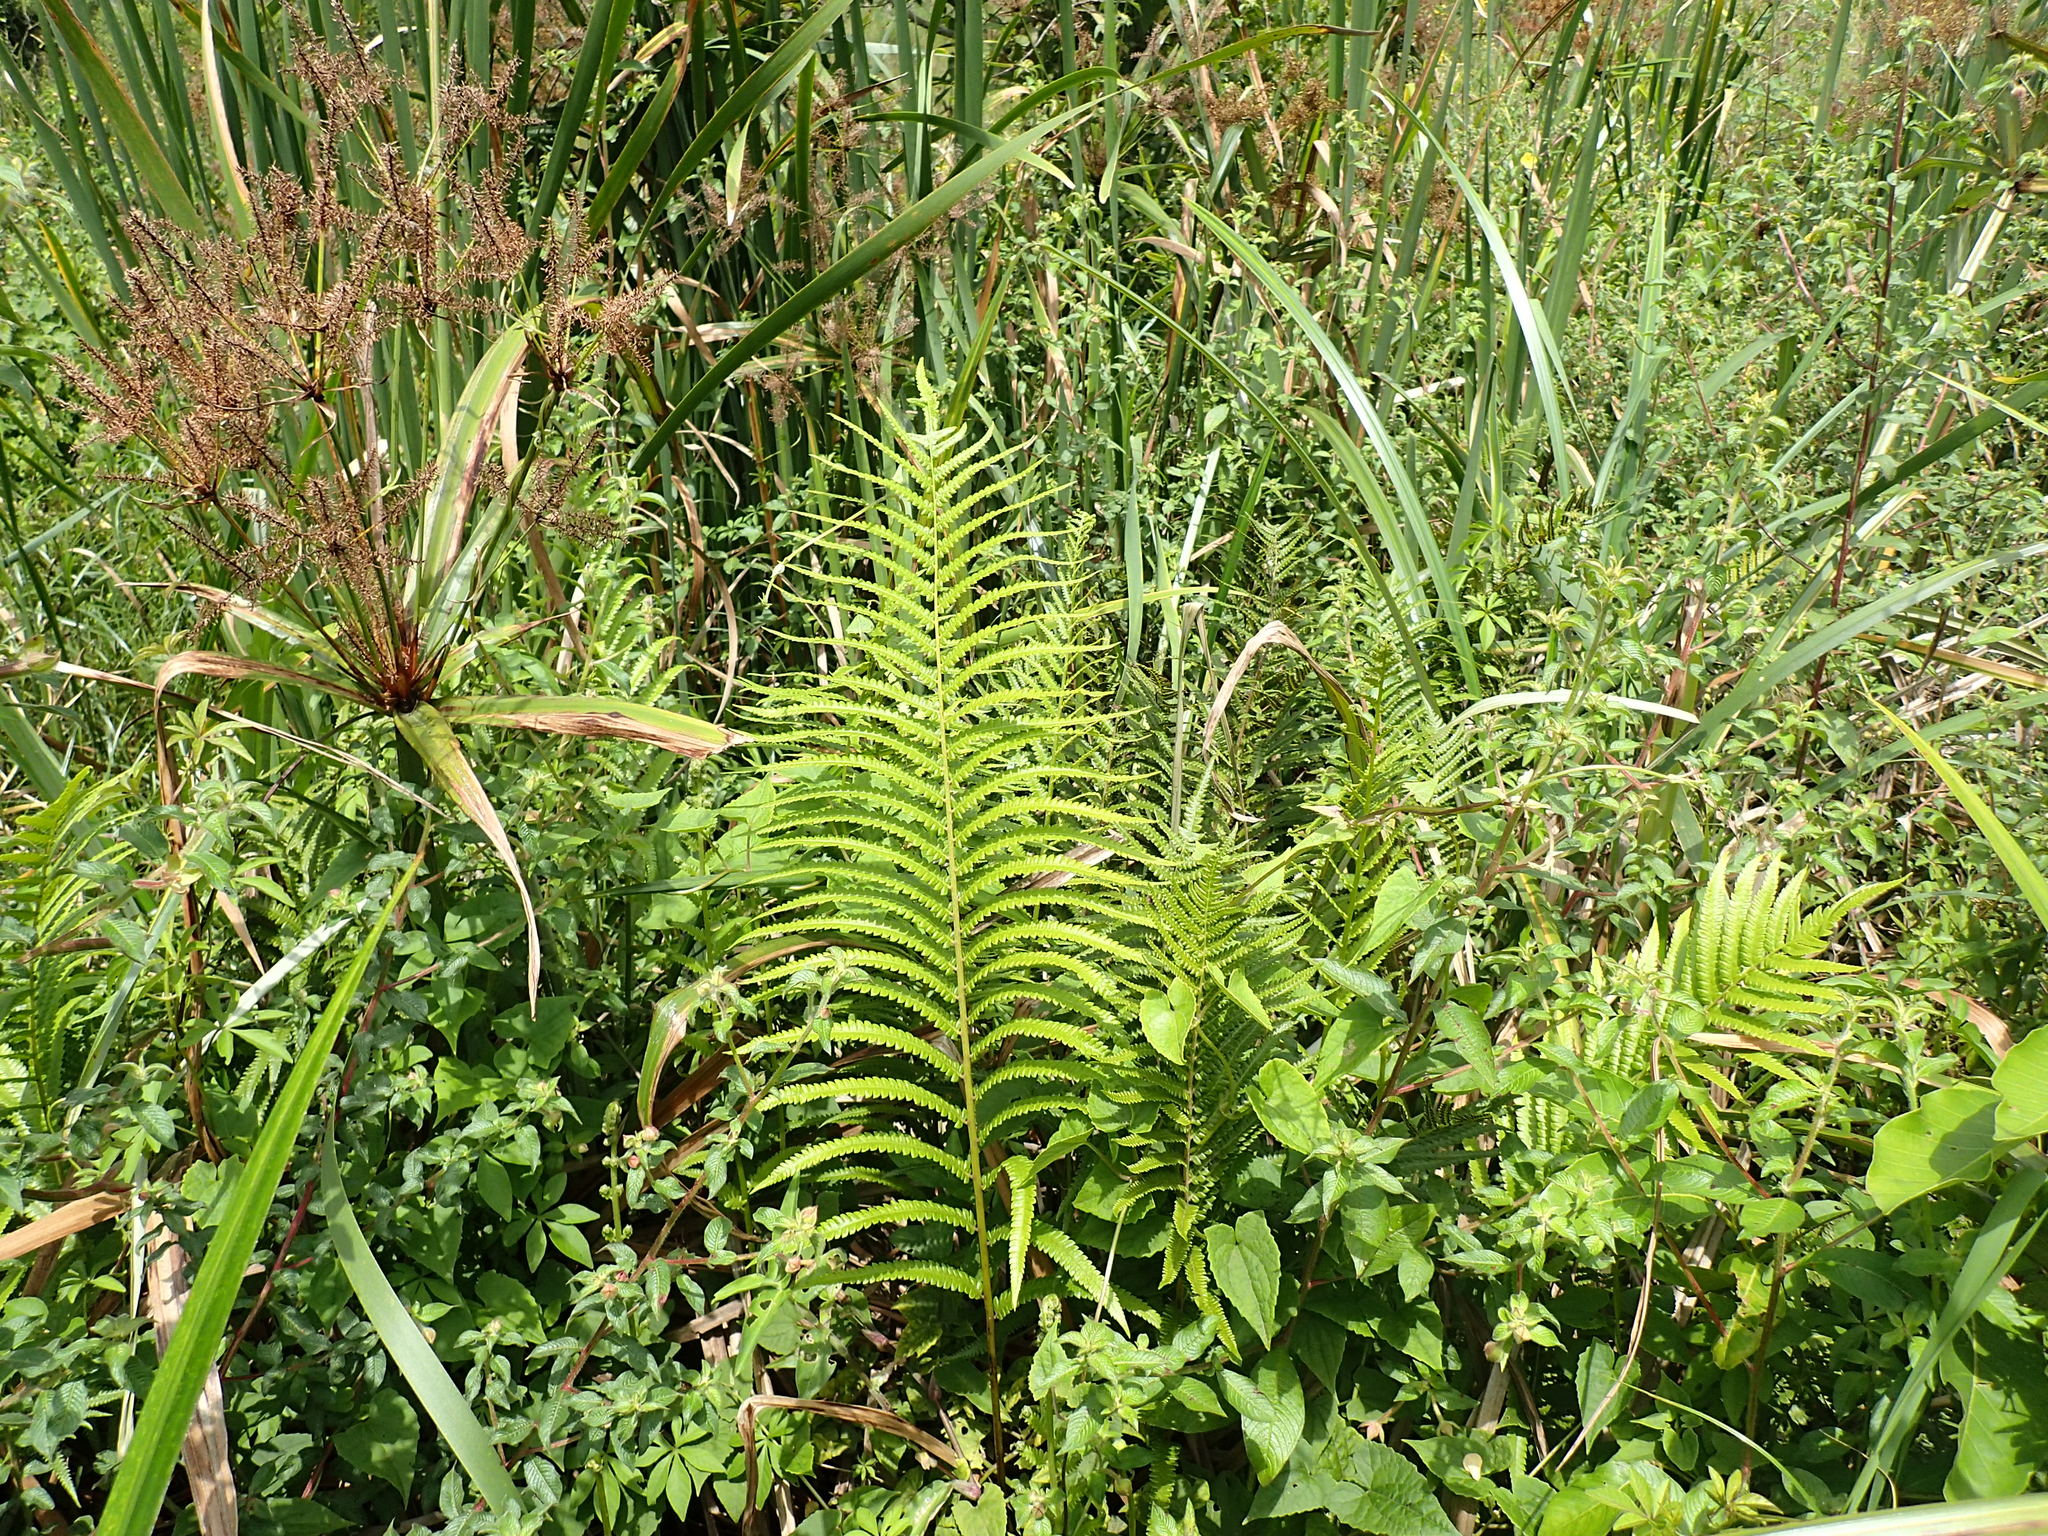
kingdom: Plantae
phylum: Tracheophyta
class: Polypodiopsida
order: Polypodiales
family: Thelypteridaceae
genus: Cyclosorus
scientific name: Cyclosorus interruptus
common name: Neke fern
